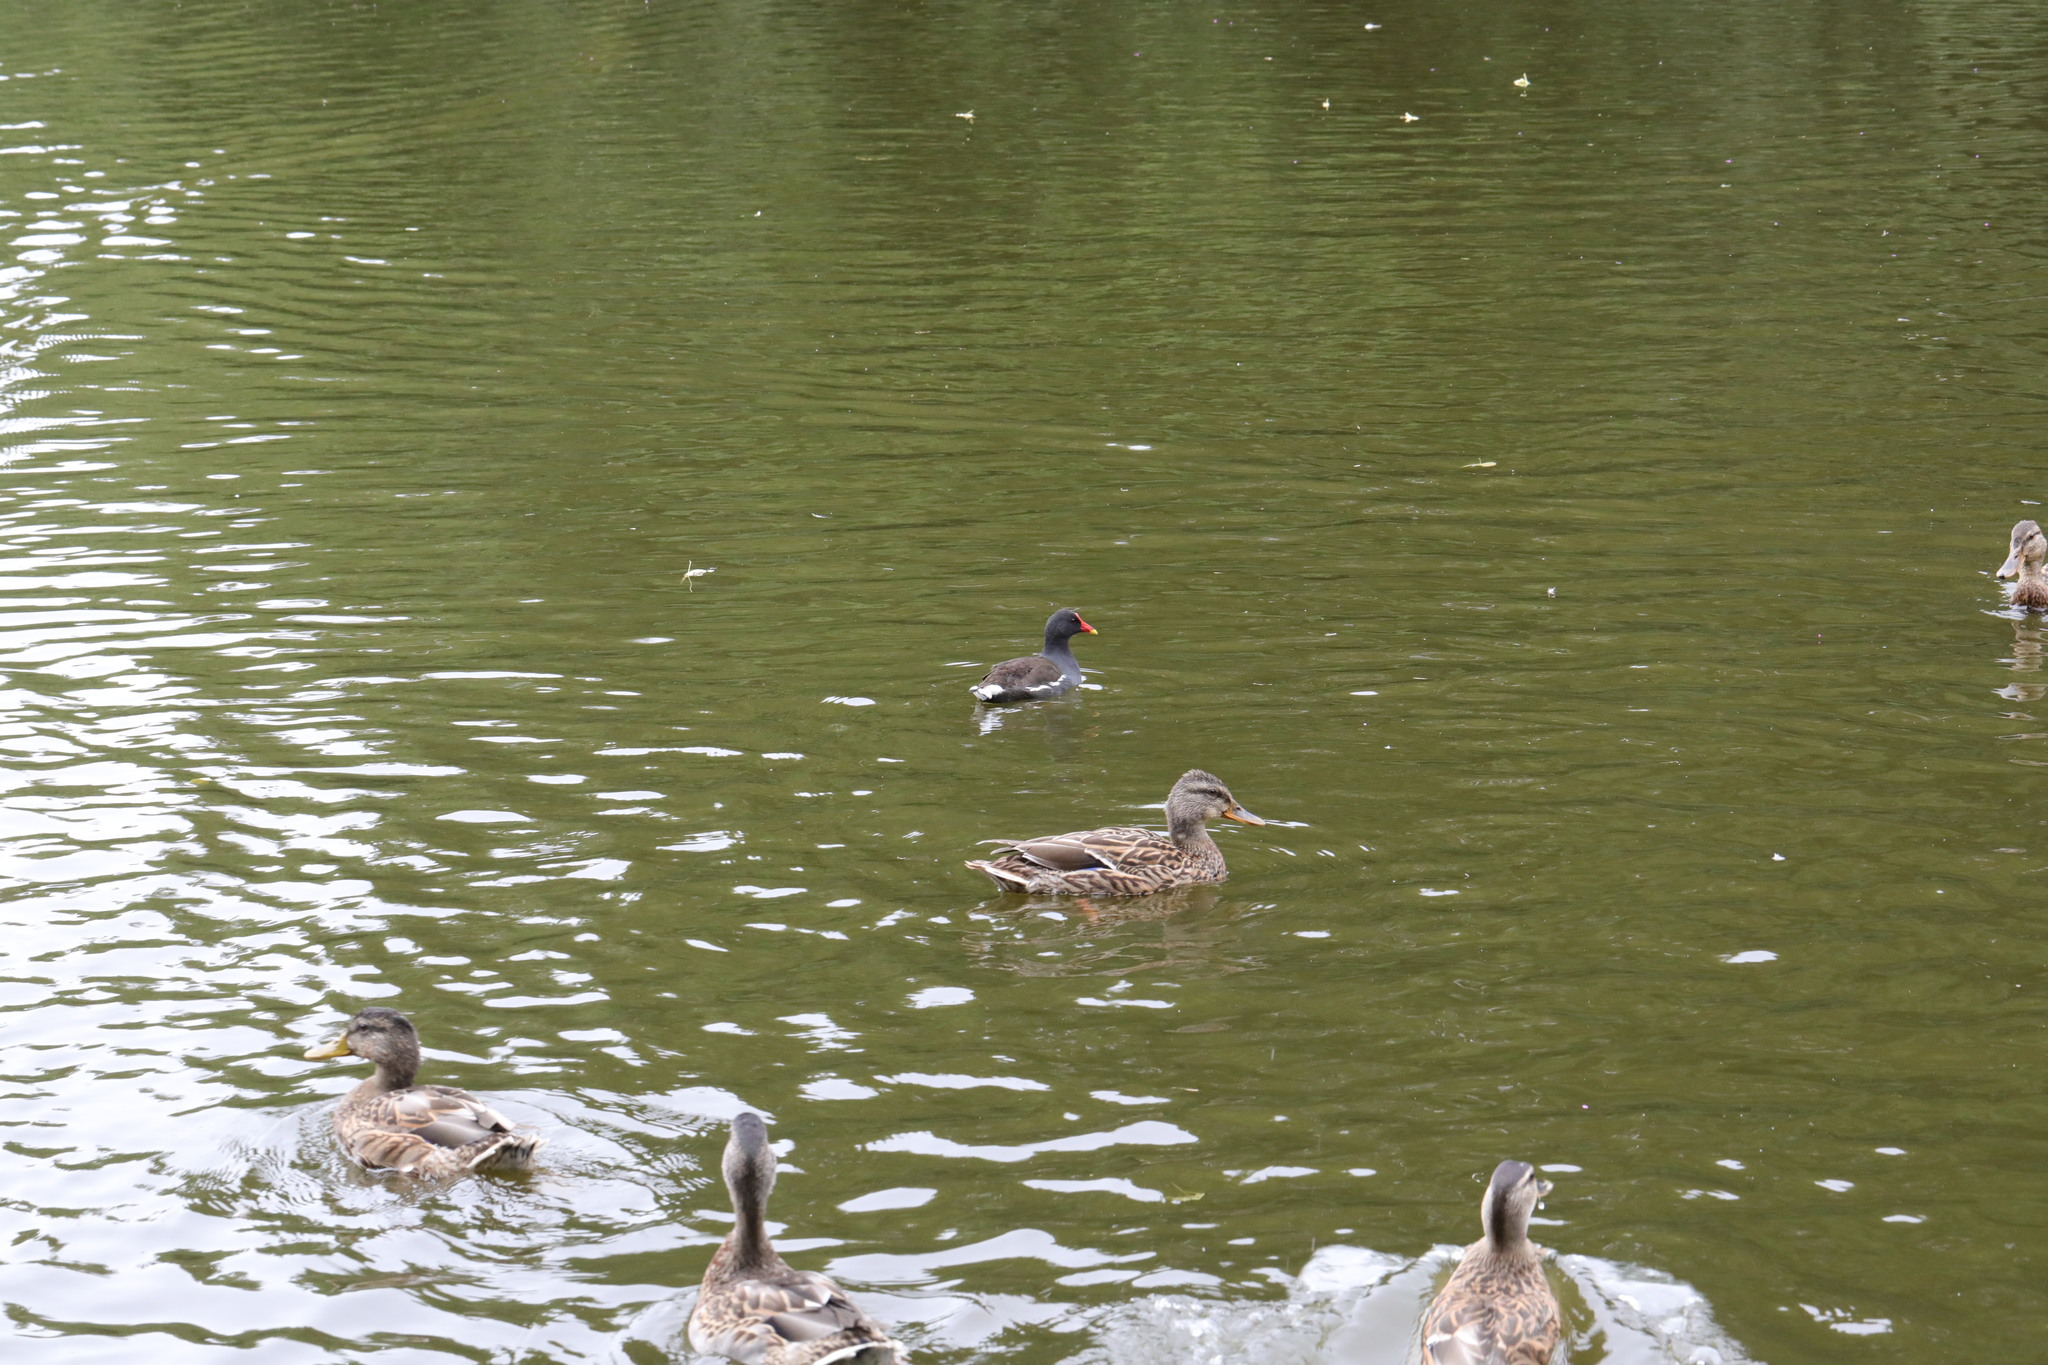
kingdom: Animalia
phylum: Chordata
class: Aves
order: Gruiformes
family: Rallidae
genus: Gallinula
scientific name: Gallinula chloropus
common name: Common moorhen
